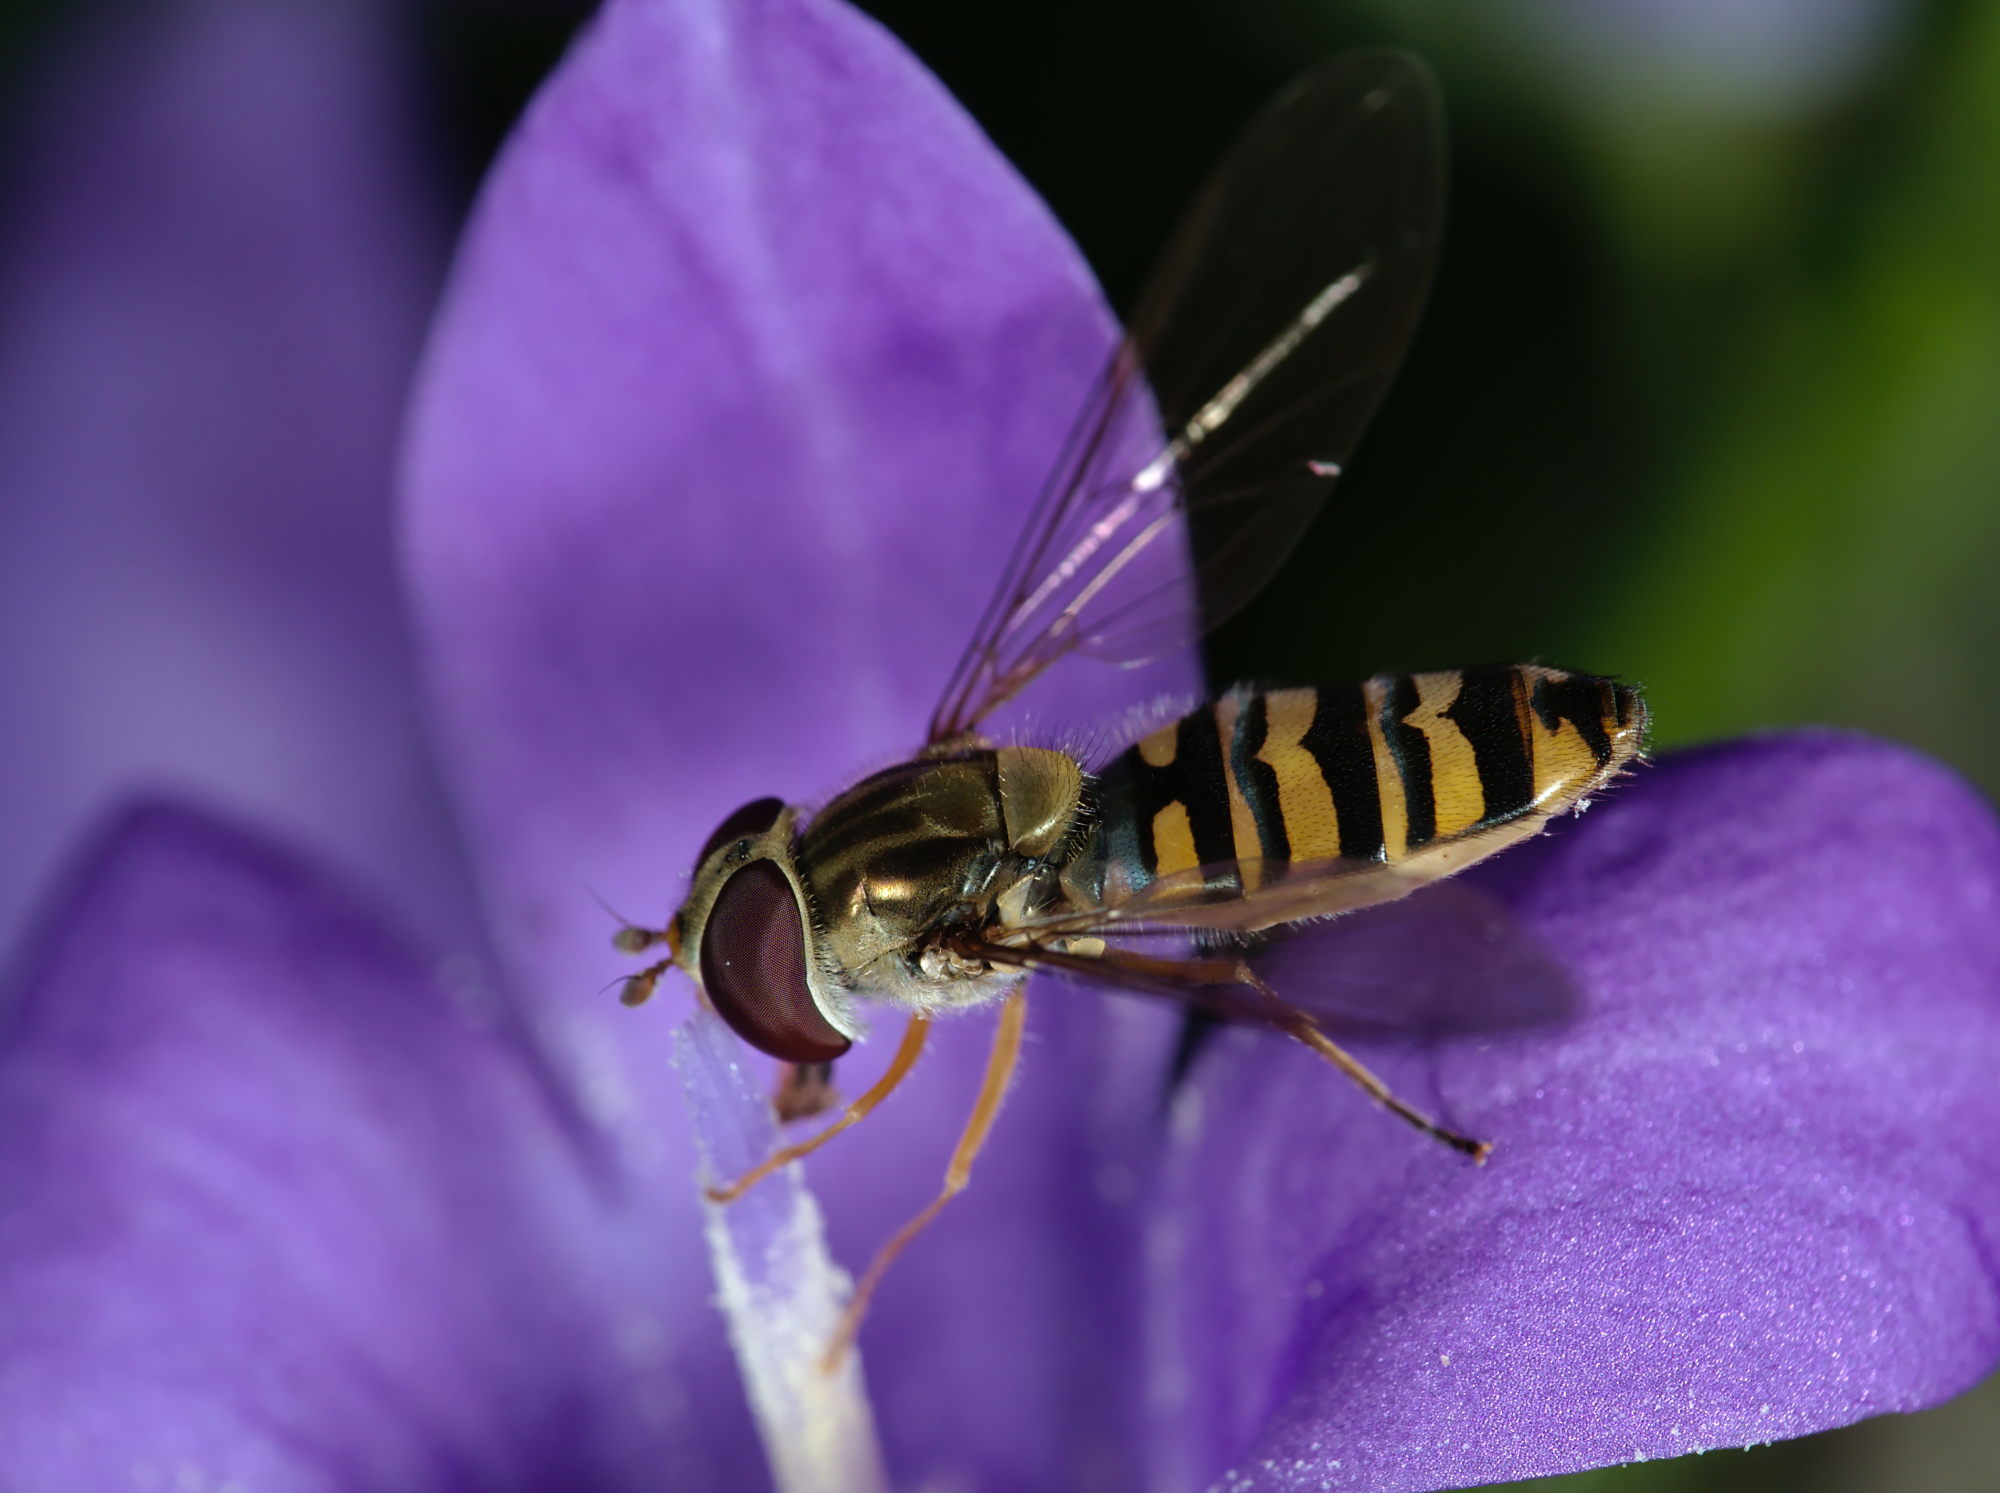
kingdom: Animalia
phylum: Arthropoda
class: Insecta
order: Diptera
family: Syrphidae
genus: Episyrphus
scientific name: Episyrphus balteatus
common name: Marmalade hoverfly
